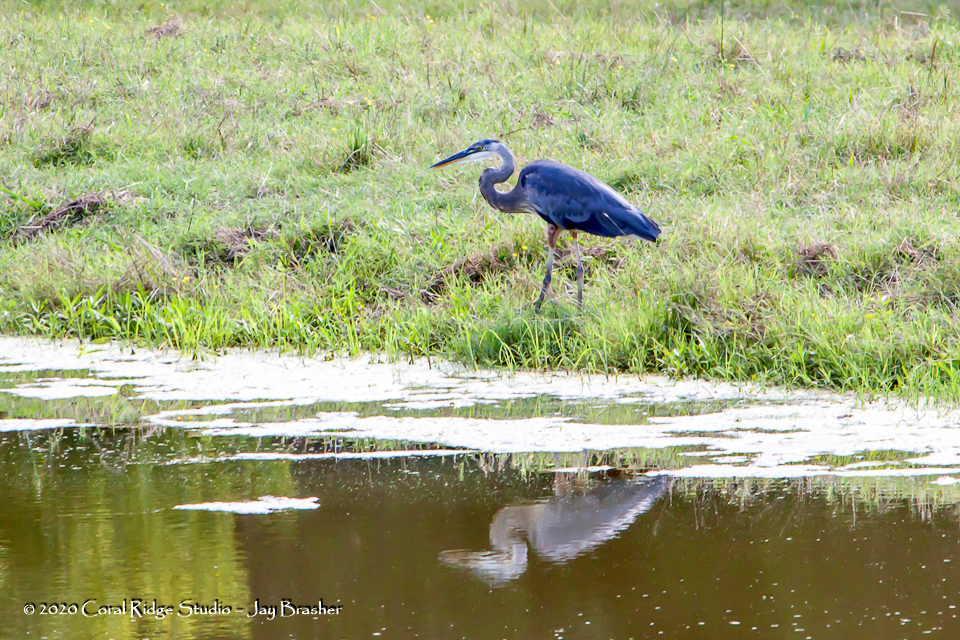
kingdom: Animalia
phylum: Chordata
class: Aves
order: Pelecaniformes
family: Ardeidae
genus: Ardea
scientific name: Ardea herodias
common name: Great blue heron
